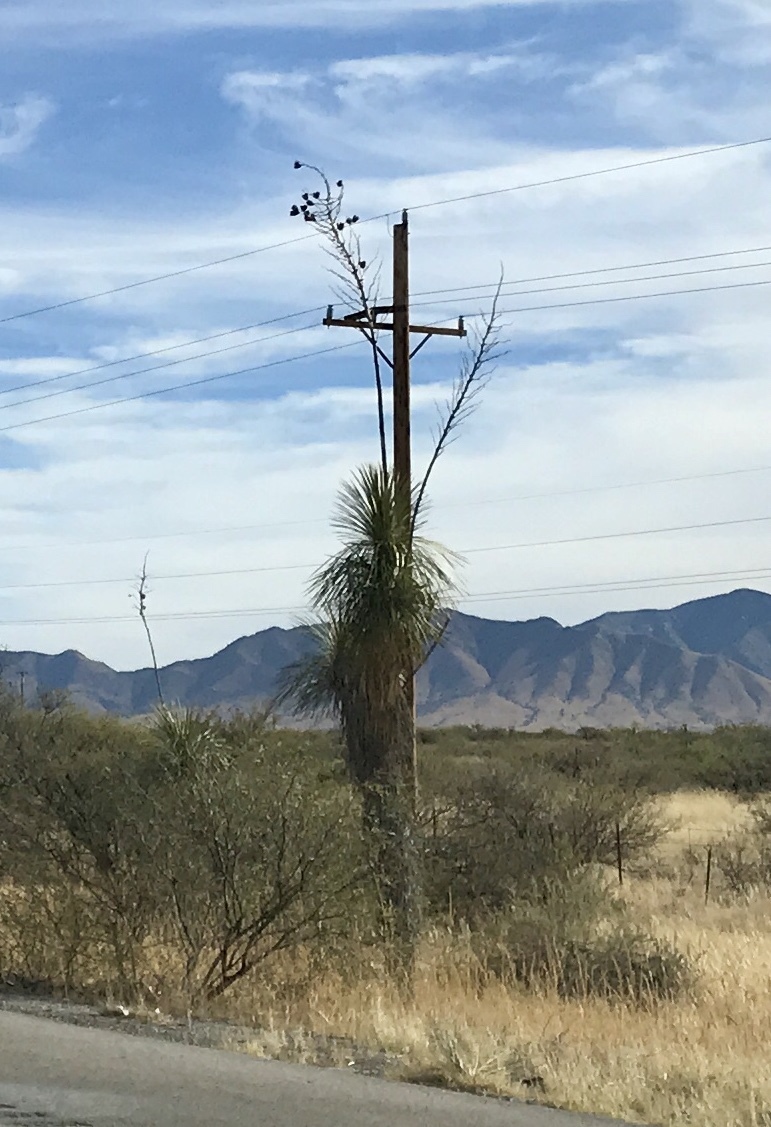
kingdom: Plantae
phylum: Tracheophyta
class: Liliopsida
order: Asparagales
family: Asparagaceae
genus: Yucca
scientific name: Yucca elata
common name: Palmella
